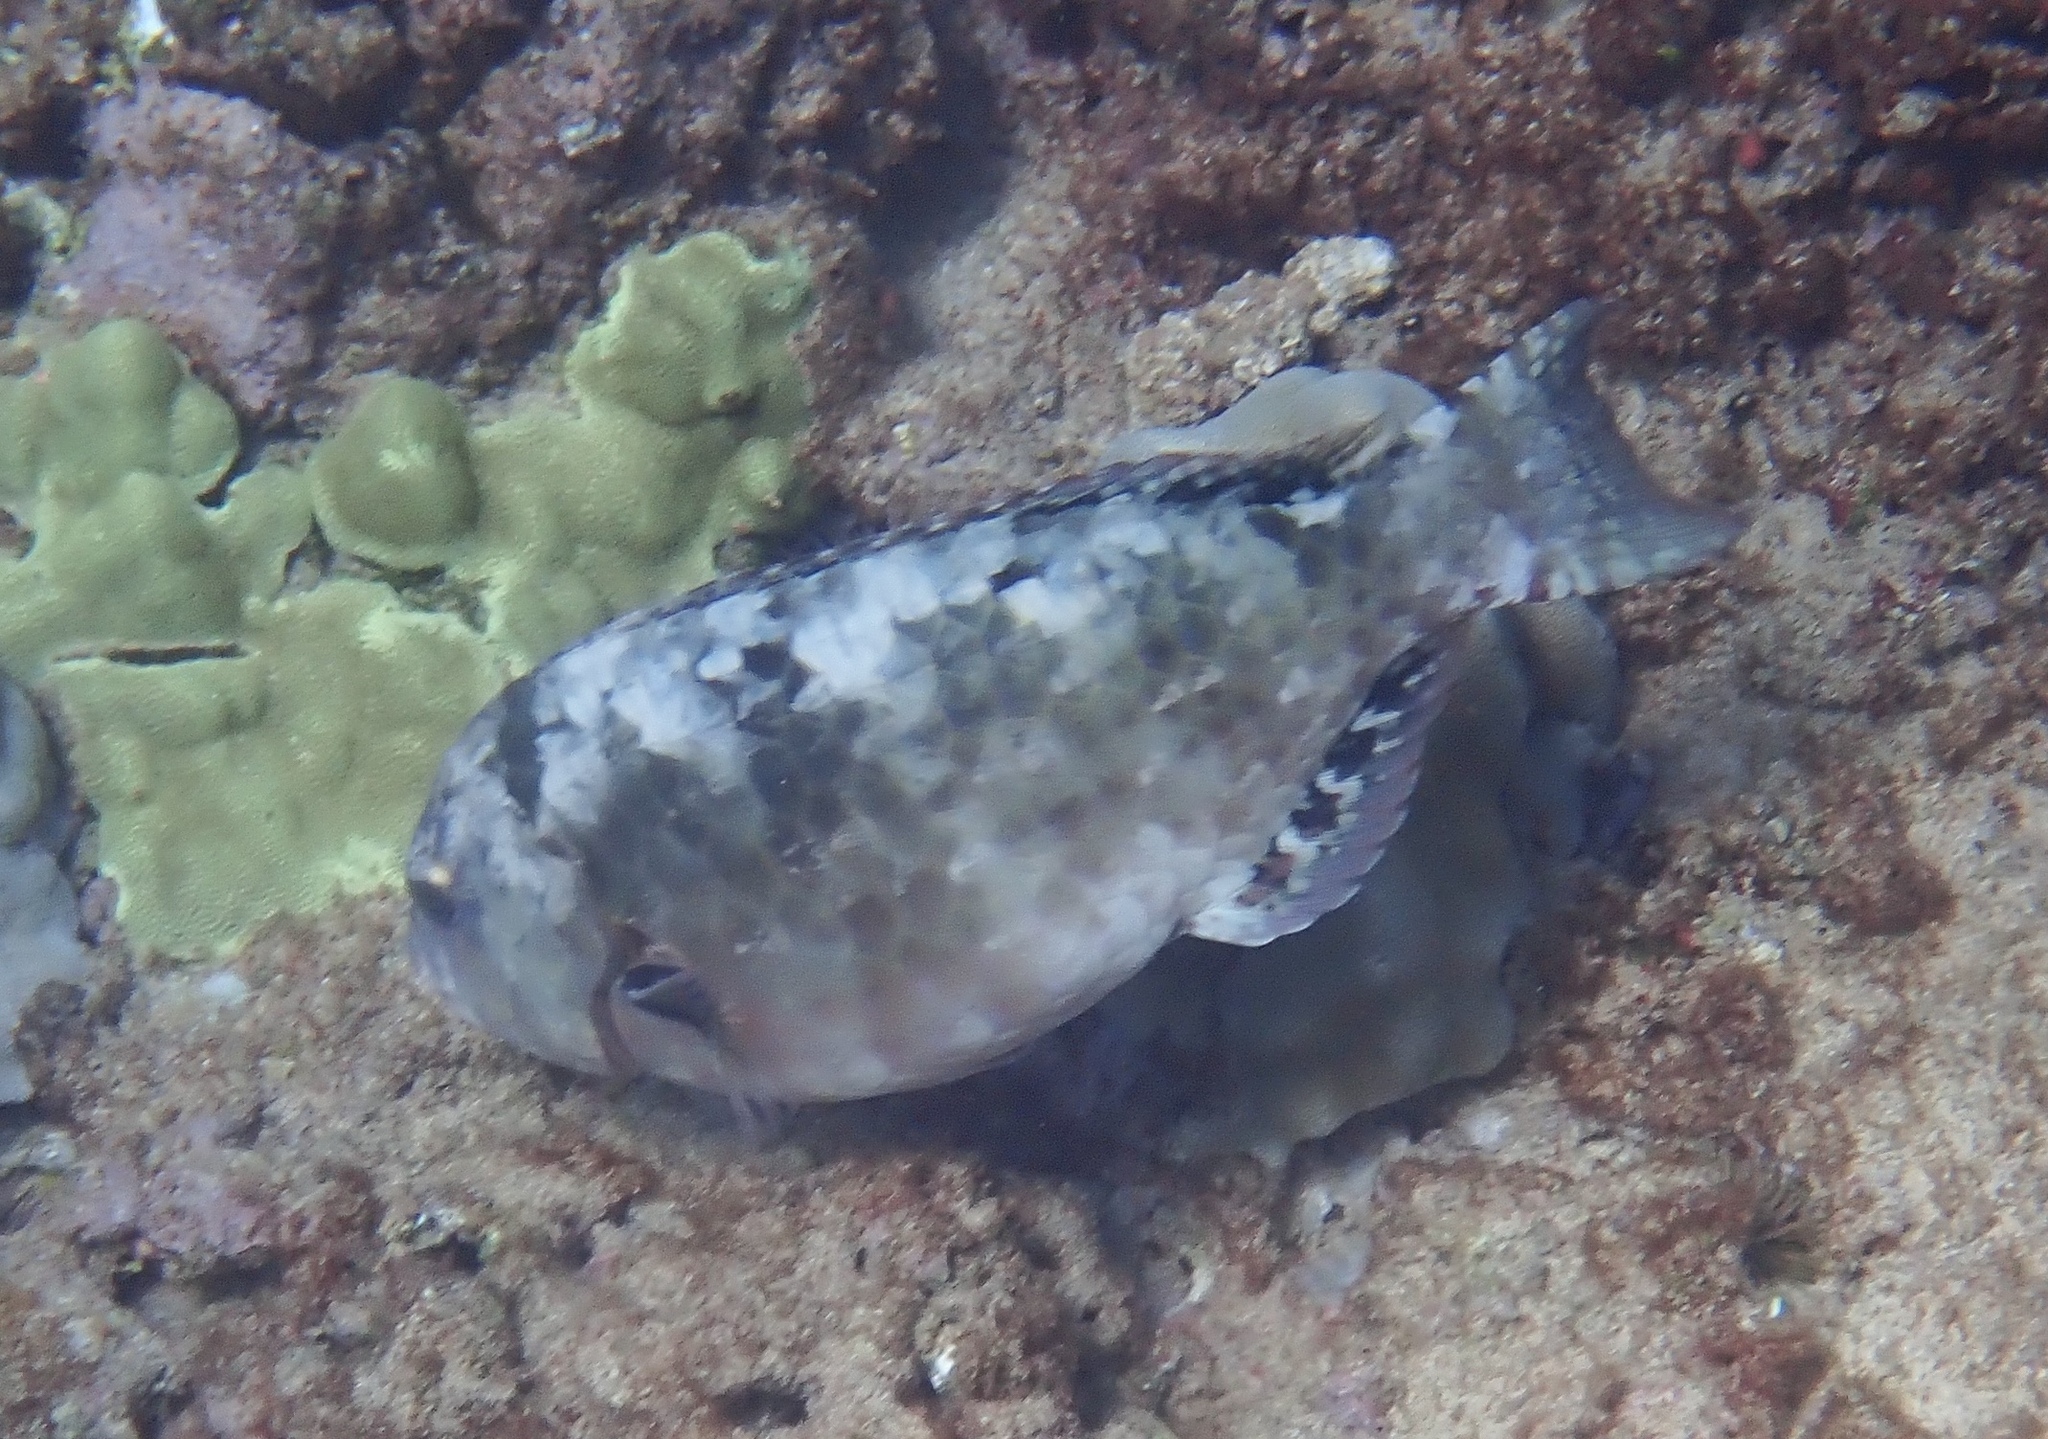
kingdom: Animalia
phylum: Chordata
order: Perciformes
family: Scaridae
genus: Calotomus
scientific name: Calotomus carolinus
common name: Bucktooth
